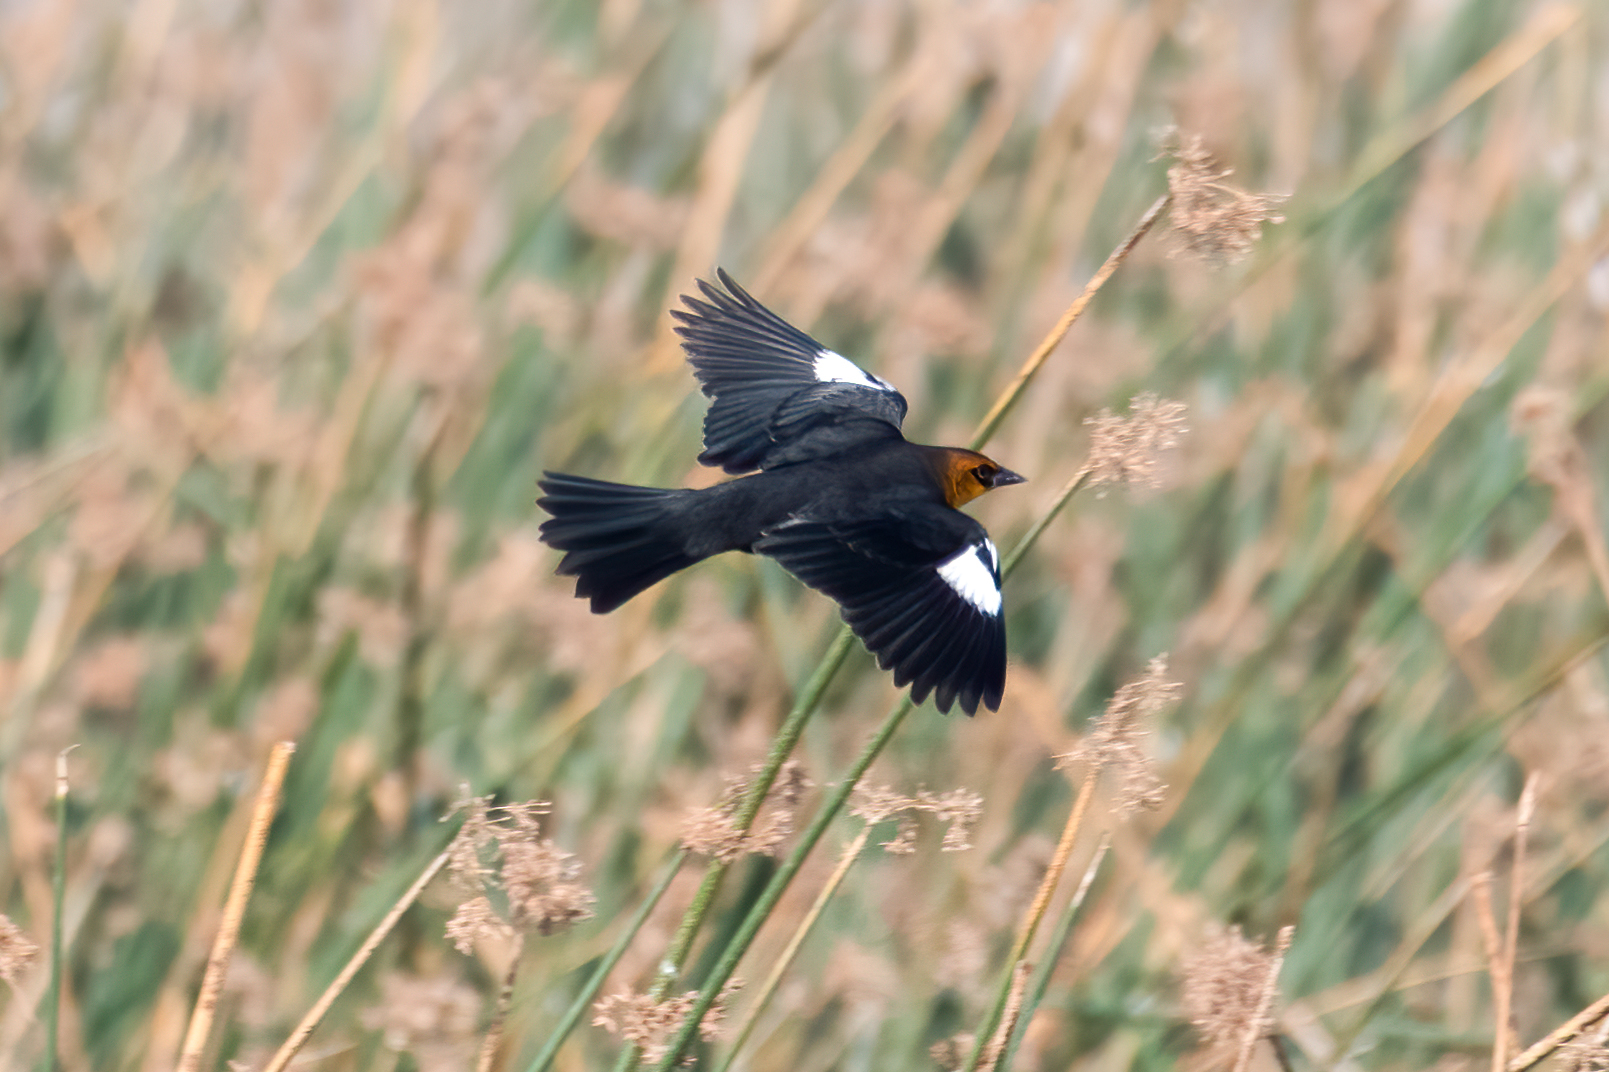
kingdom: Animalia
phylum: Chordata
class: Aves
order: Passeriformes
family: Icteridae
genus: Xanthocephalus
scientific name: Xanthocephalus xanthocephalus
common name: Yellow-headed blackbird
